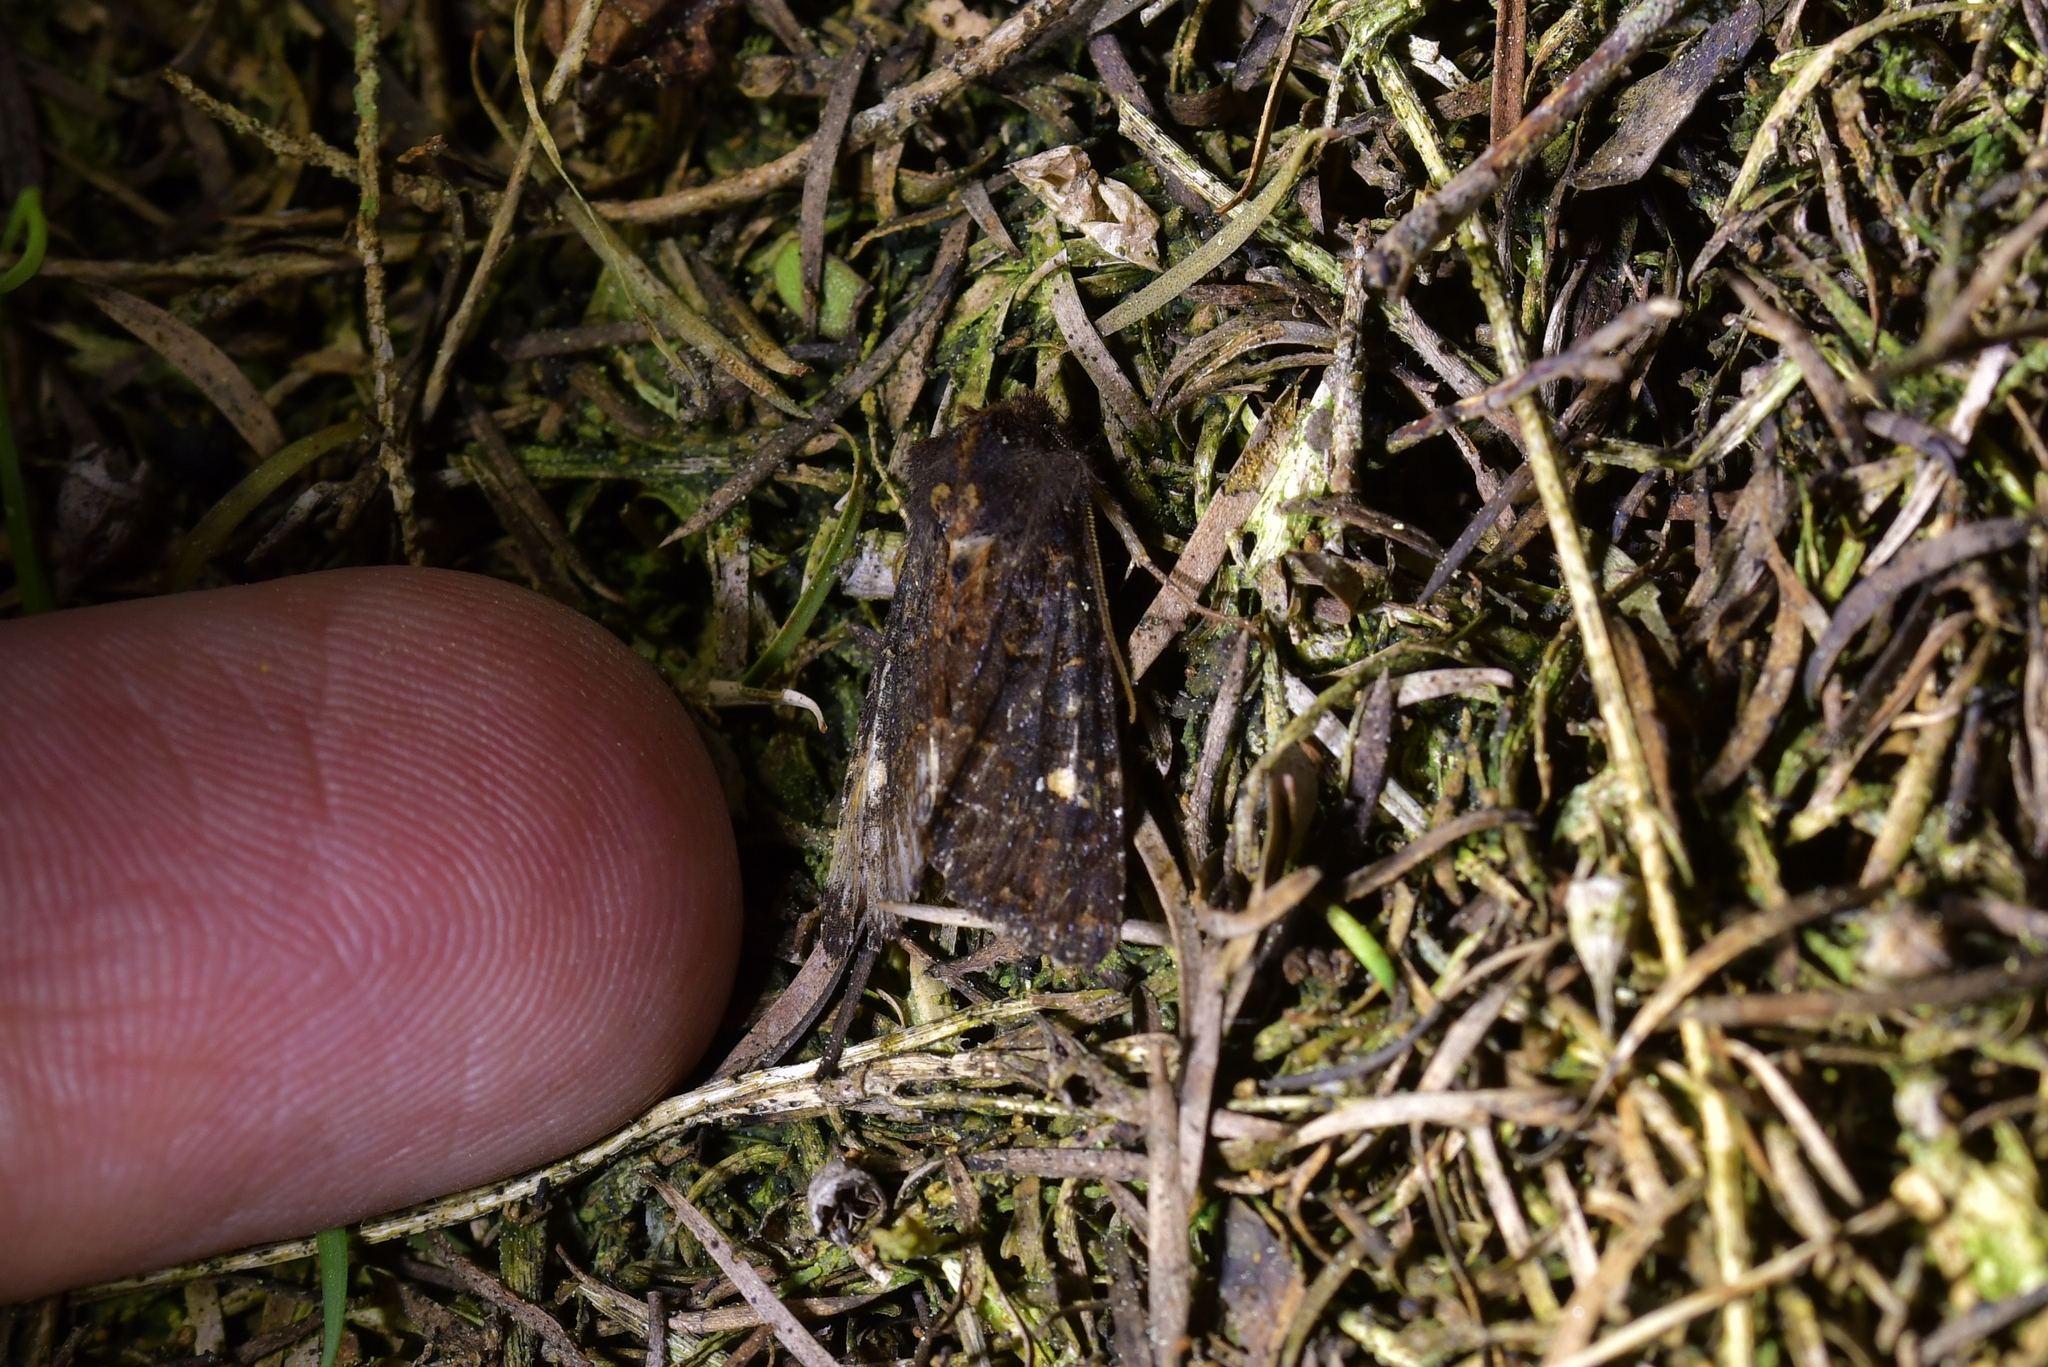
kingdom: Animalia
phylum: Arthropoda
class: Insecta
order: Lepidoptera
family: Noctuidae
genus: Meterana
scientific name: Meterana vitiosa
